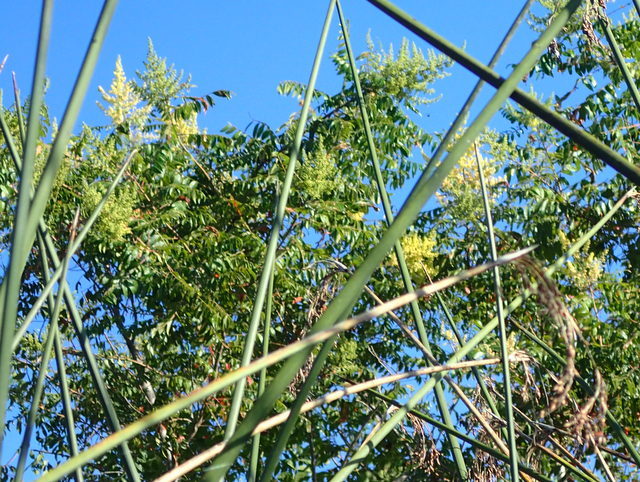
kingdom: Plantae
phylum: Tracheophyta
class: Magnoliopsida
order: Sapindales
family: Anacardiaceae
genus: Rhus
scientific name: Rhus copallina
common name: Shining sumac
